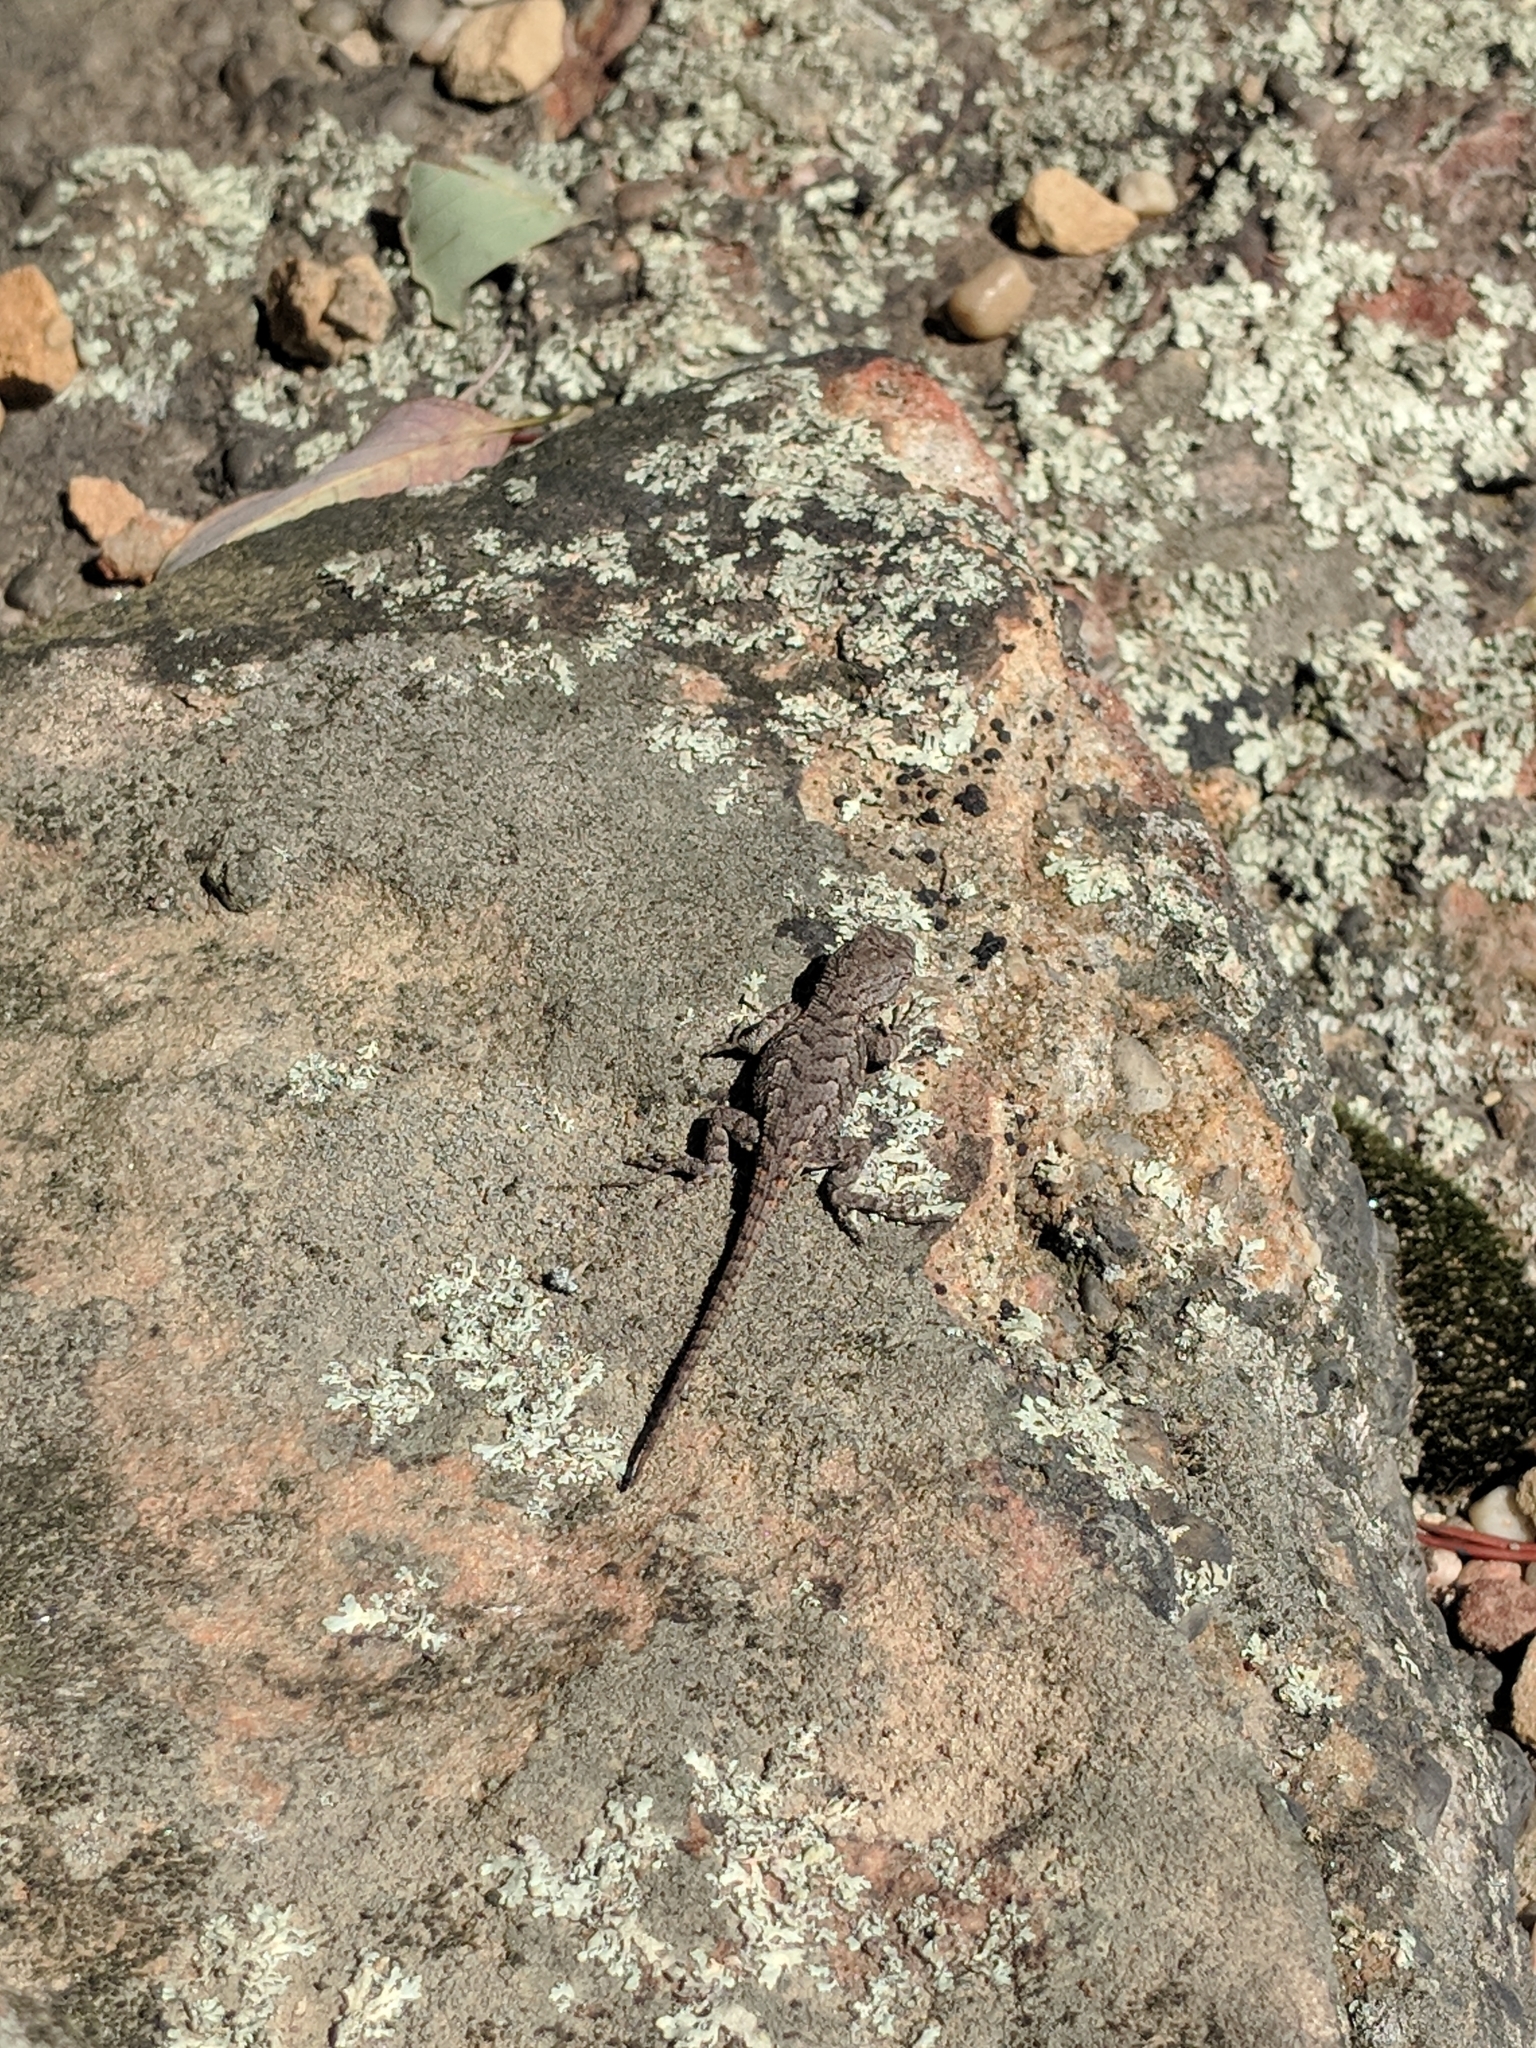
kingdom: Animalia
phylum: Chordata
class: Squamata
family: Phrynosomatidae
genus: Sceloporus
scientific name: Sceloporus undulatus
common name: Eastern fence lizard
